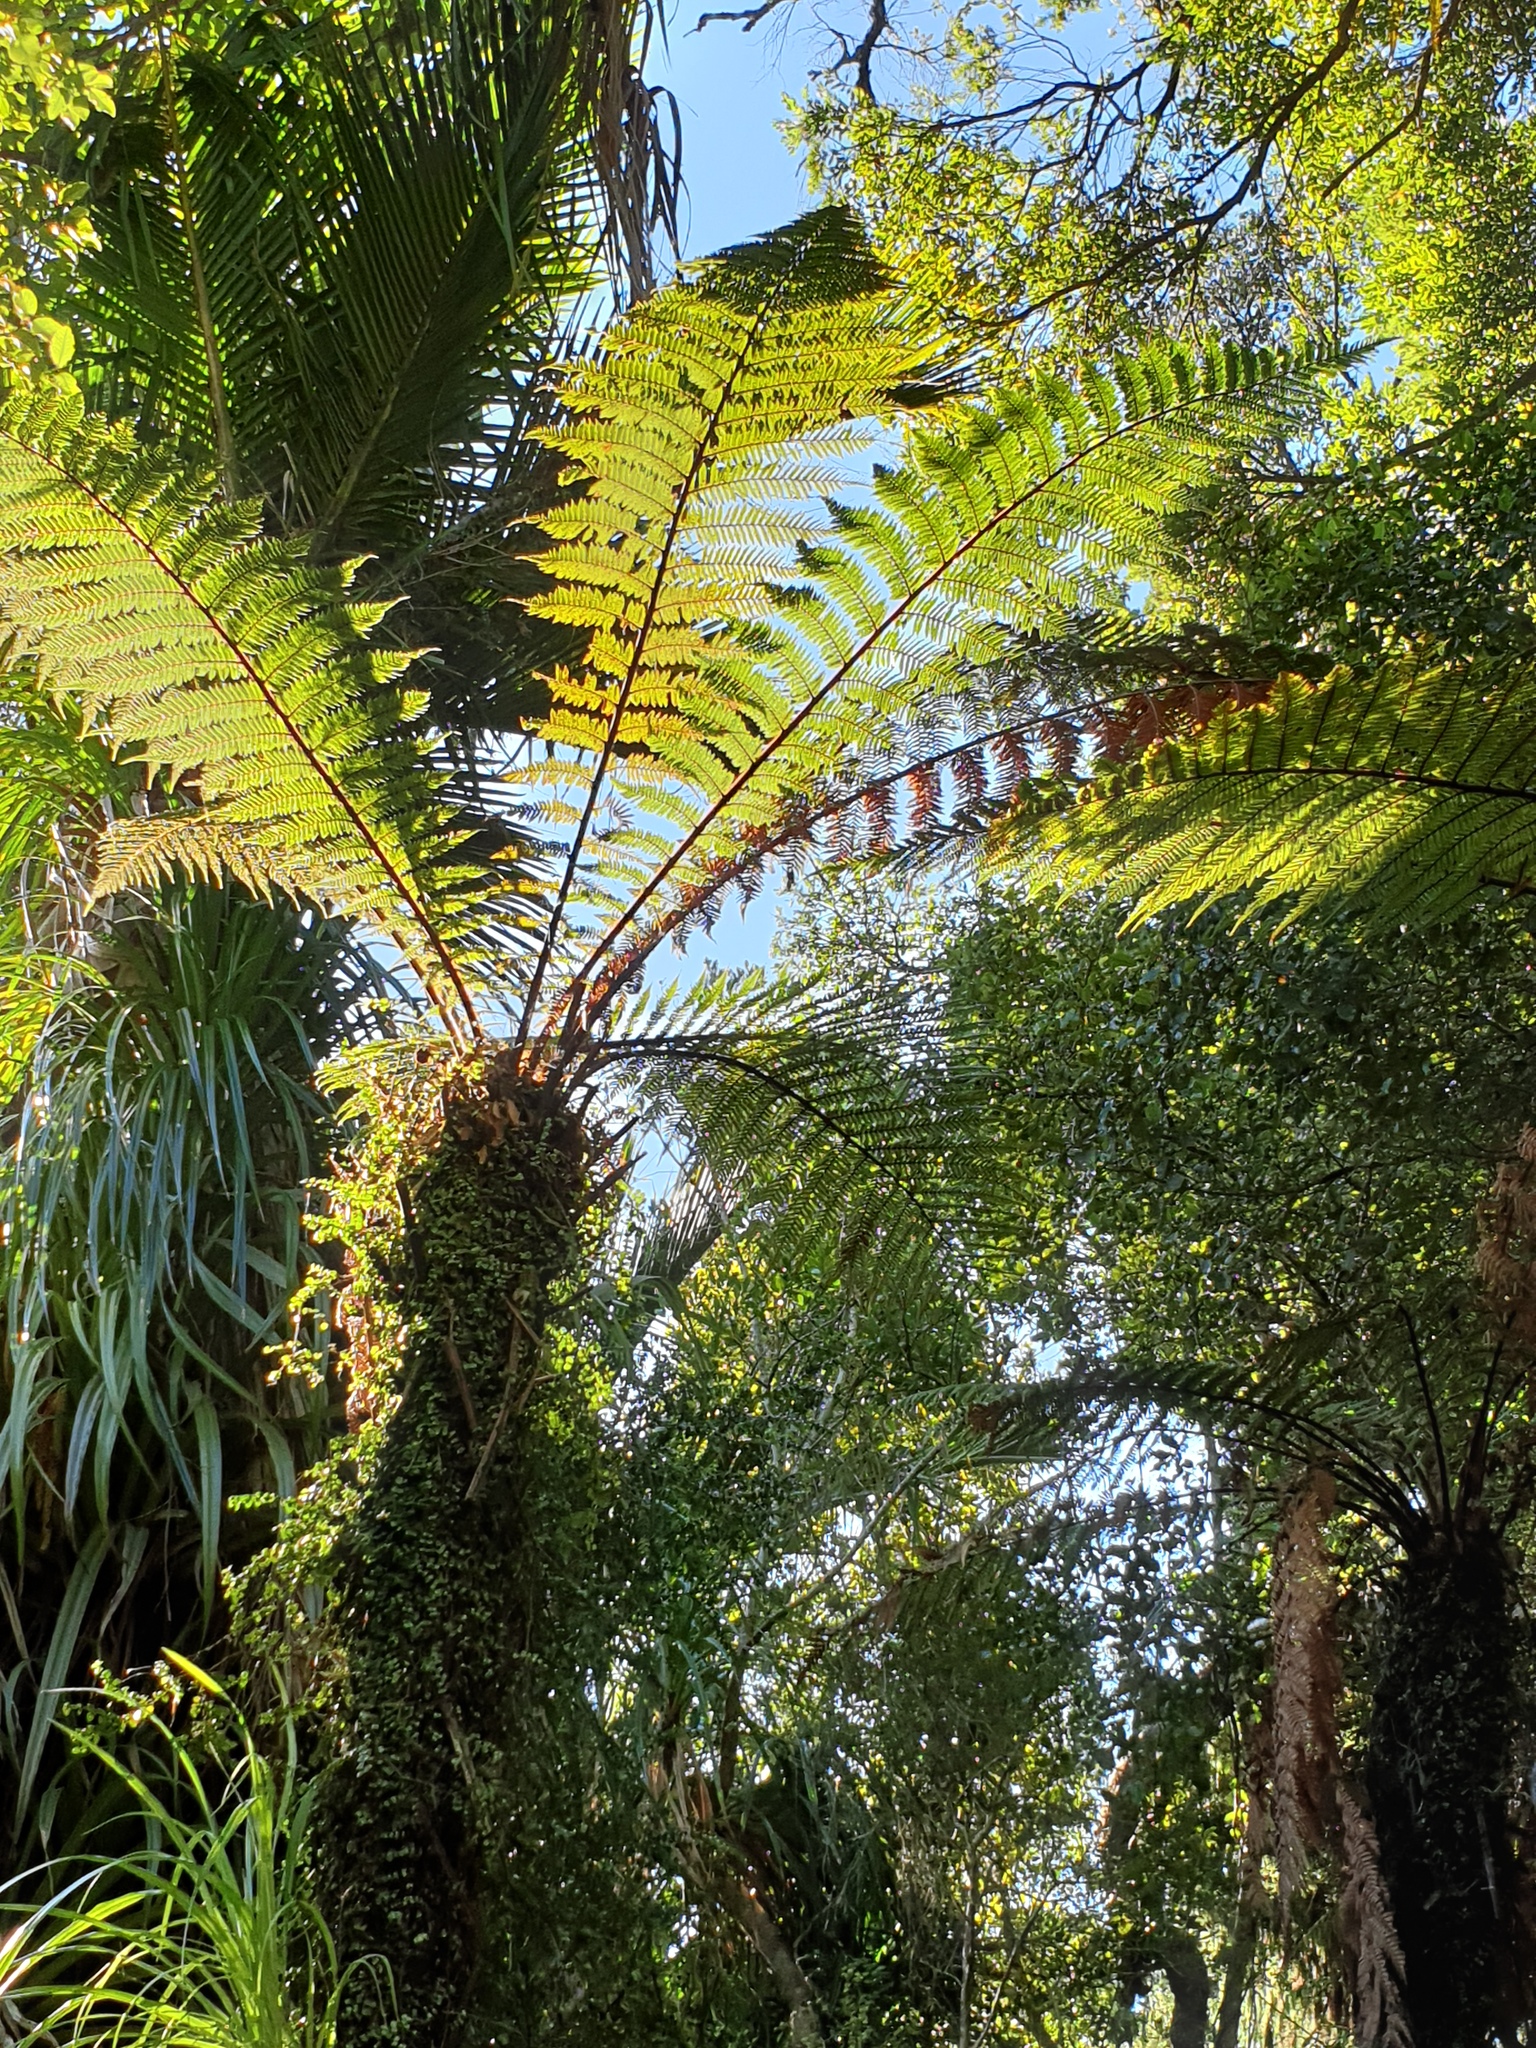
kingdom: Plantae
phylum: Tracheophyta
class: Polypodiopsida
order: Cyatheales
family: Dicksoniaceae
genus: Dicksonia
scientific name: Dicksonia squarrosa
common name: Hard treefern
